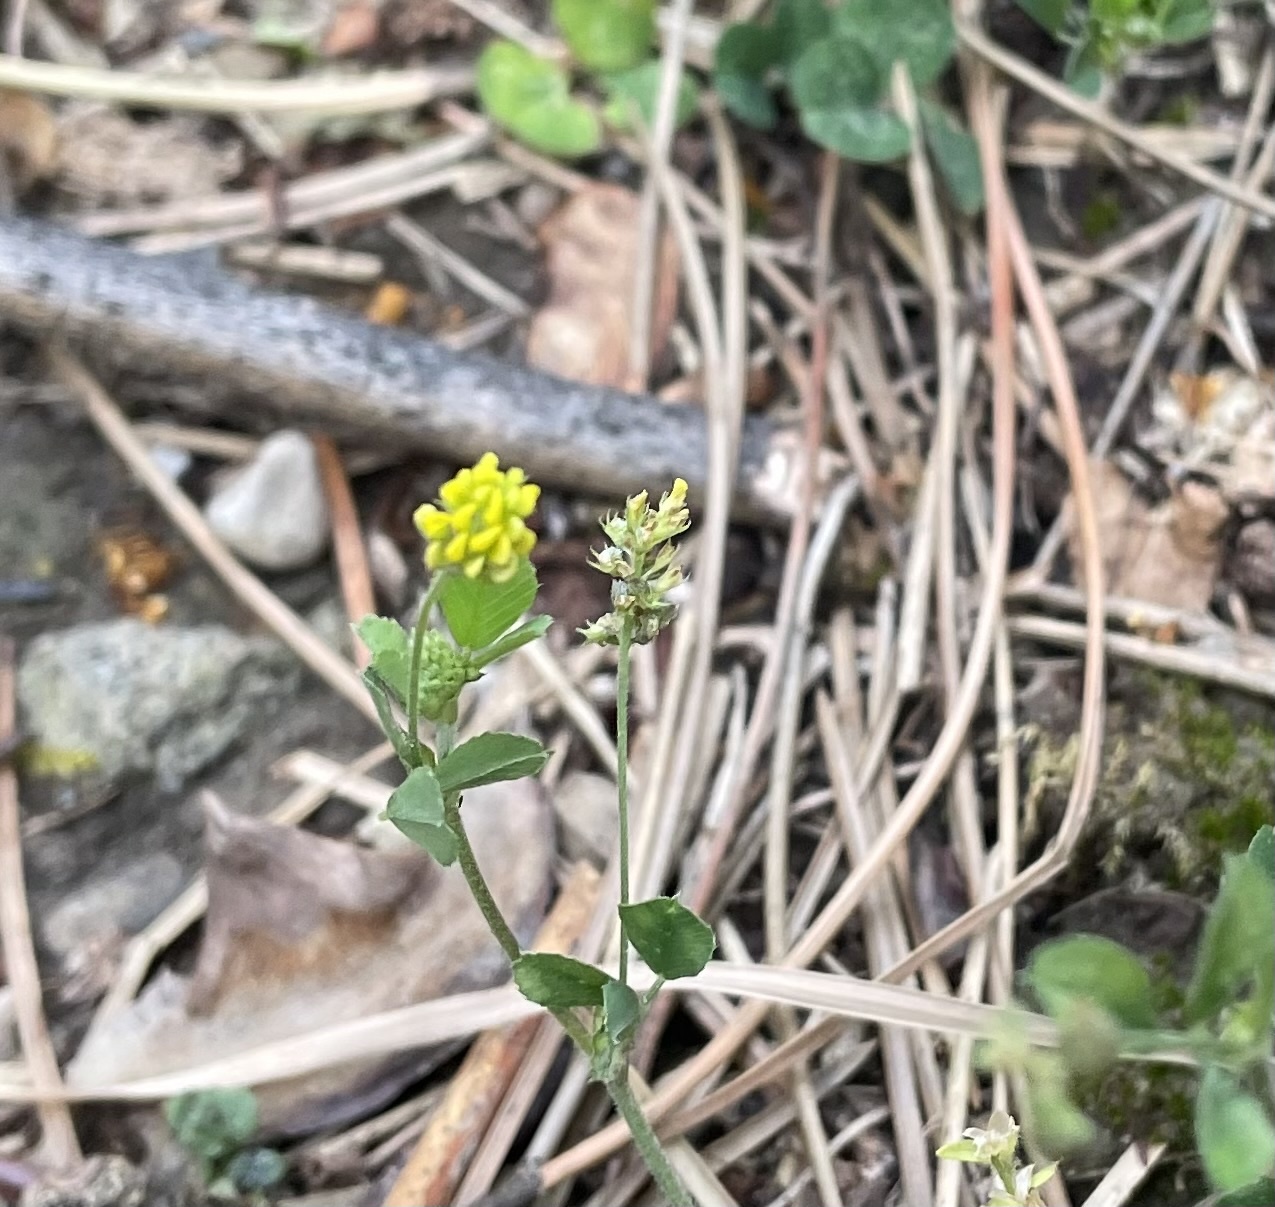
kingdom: Plantae
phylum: Tracheophyta
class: Magnoliopsida
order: Fabales
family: Fabaceae
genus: Medicago
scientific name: Medicago lupulina
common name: Black medick
